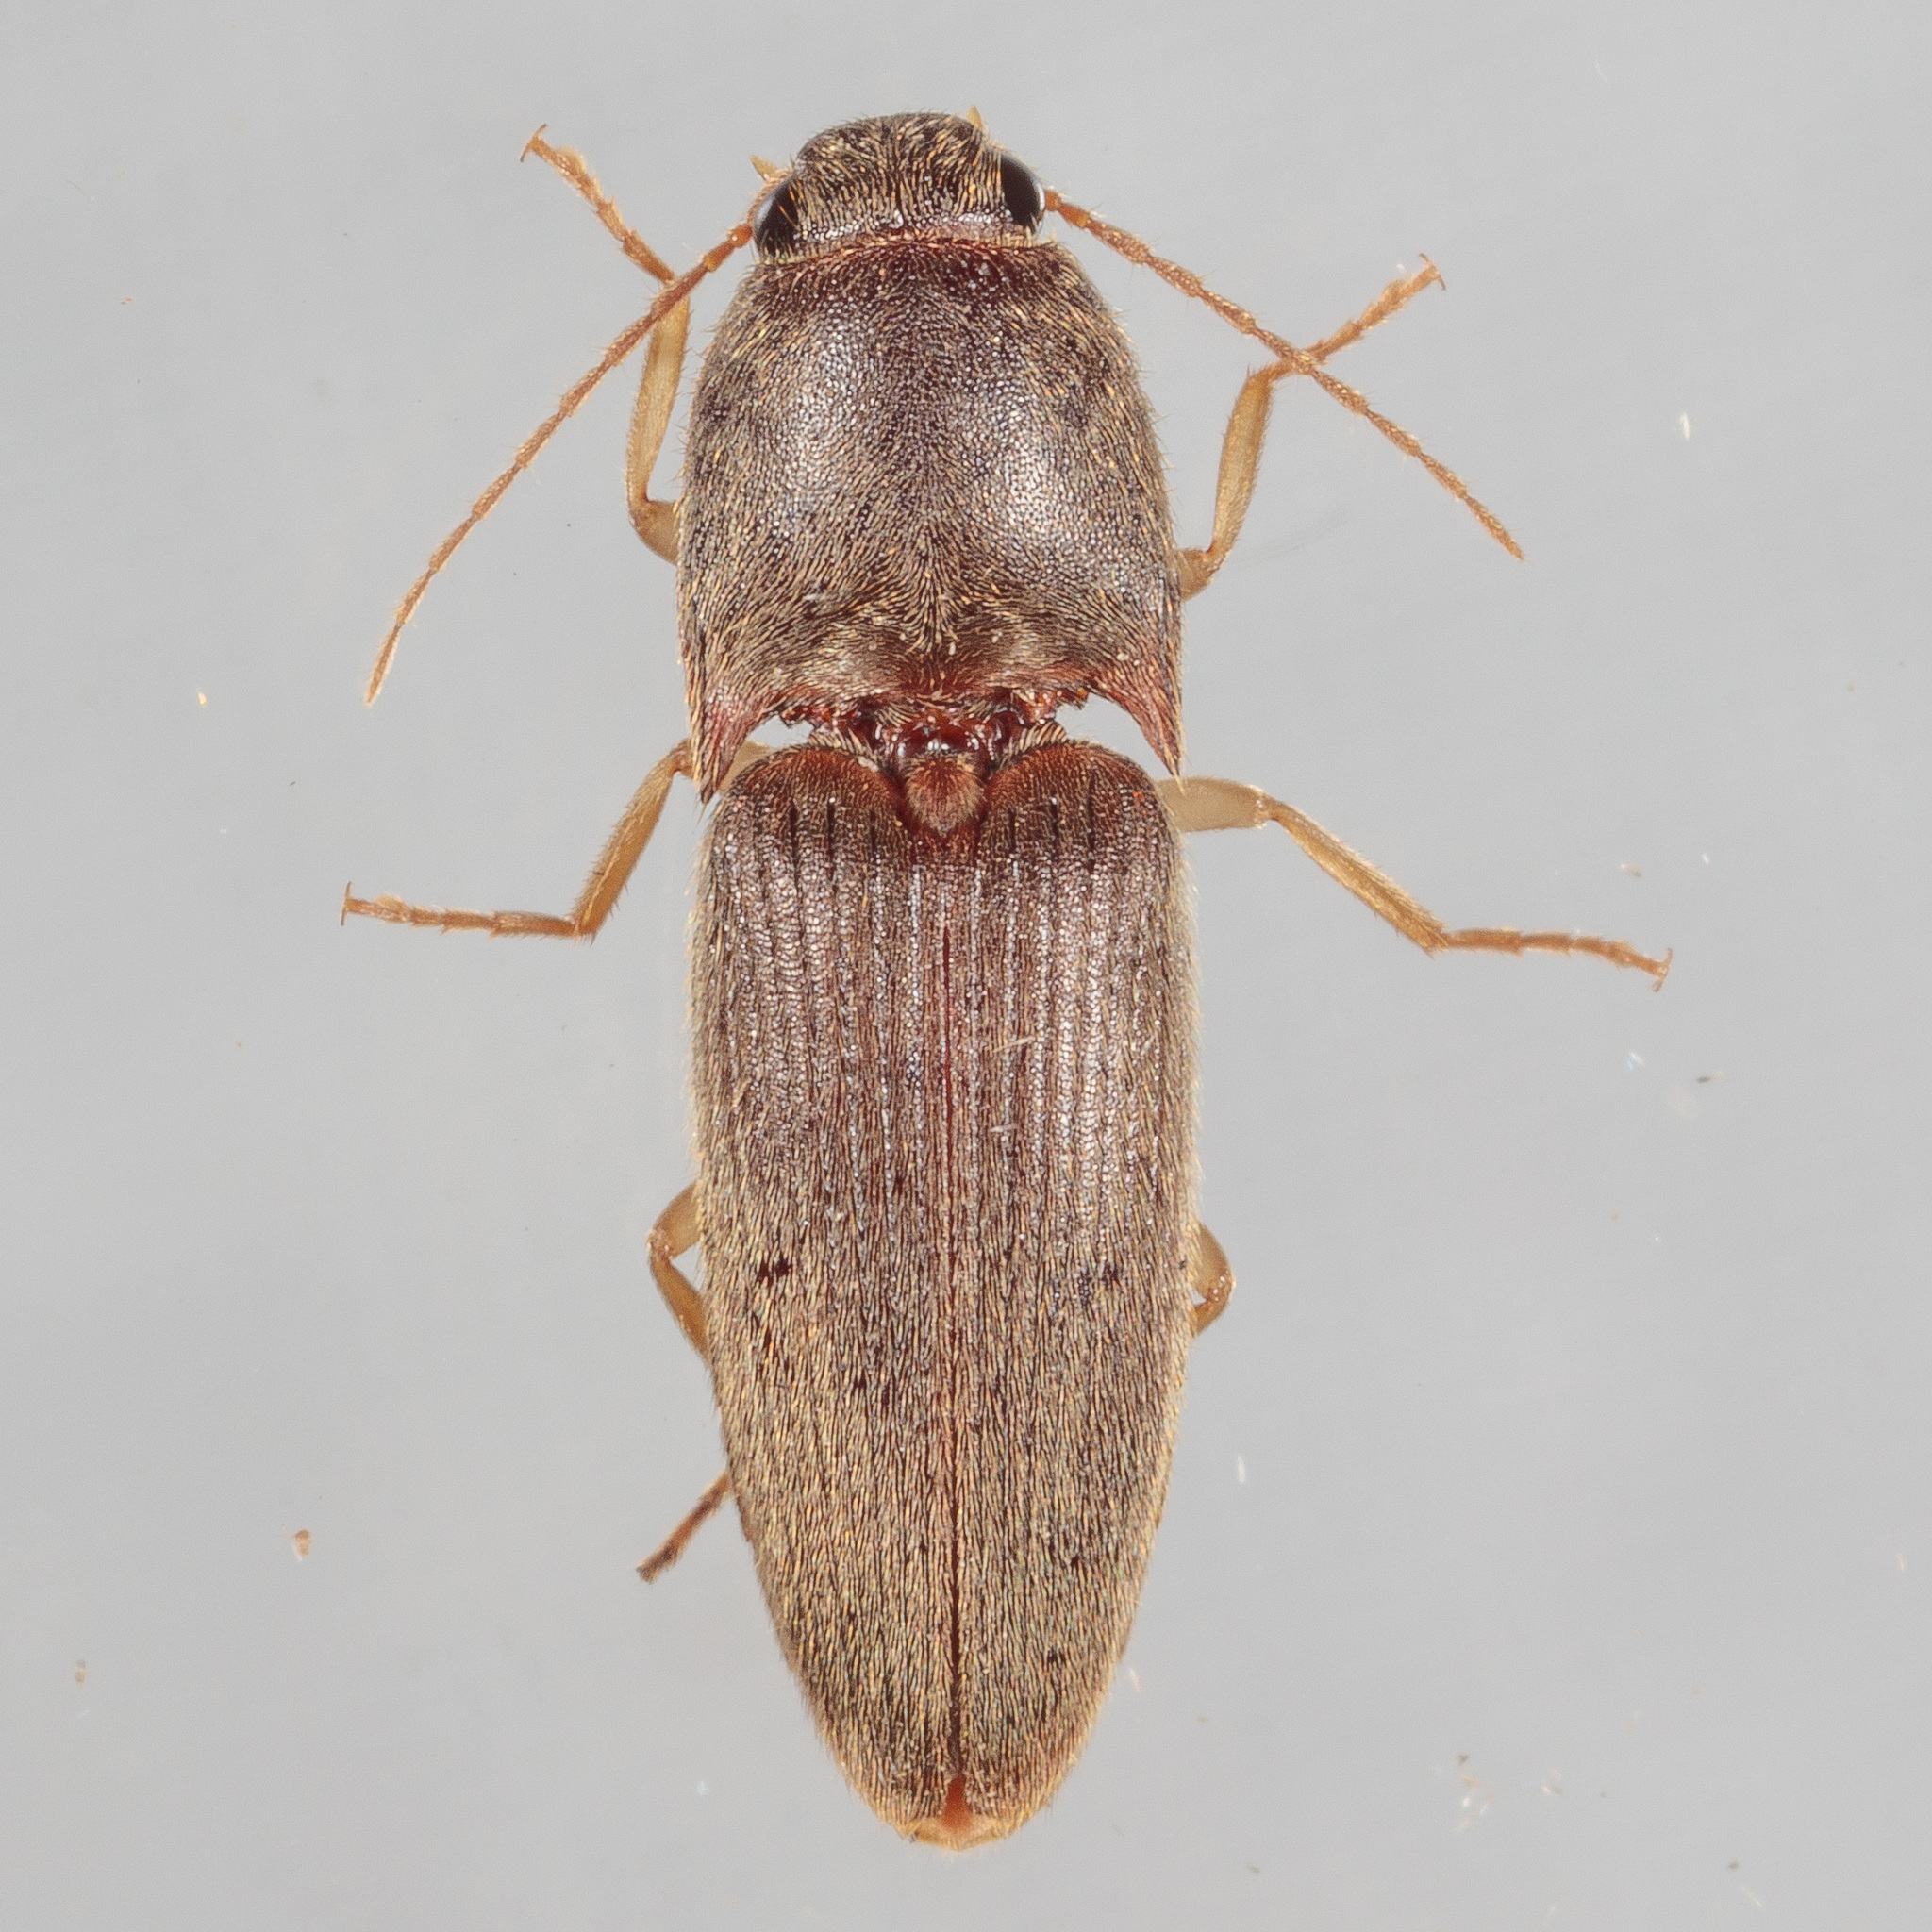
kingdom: Animalia
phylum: Arthropoda
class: Insecta
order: Coleoptera
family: Elateridae
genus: Conoderus
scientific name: Conoderus exsul
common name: Click beetle
